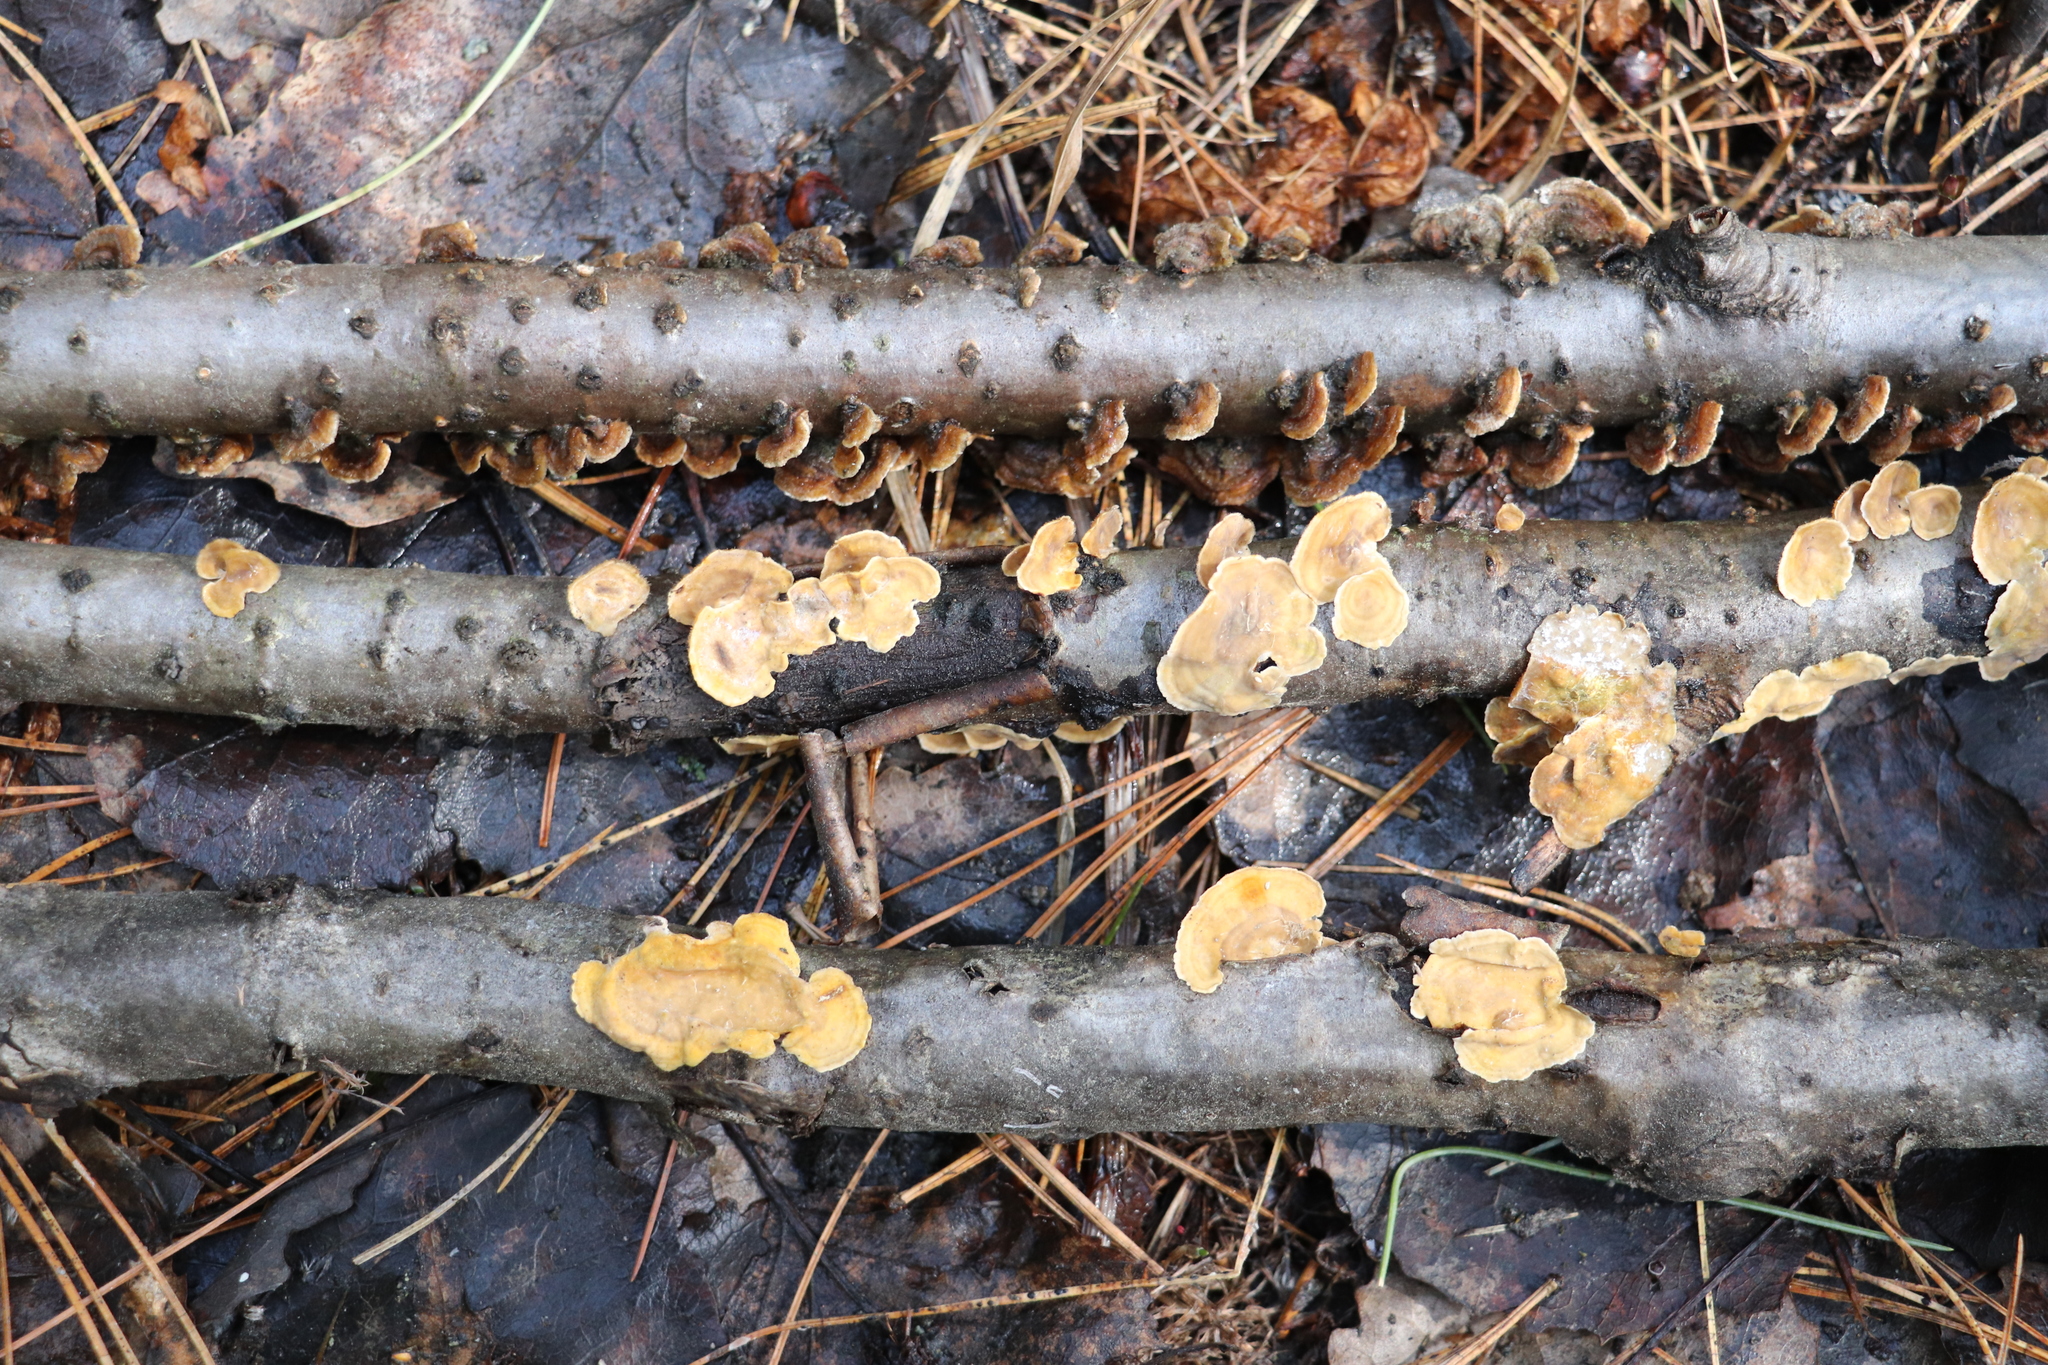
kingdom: Fungi
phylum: Basidiomycota
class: Agaricomycetes
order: Russulales
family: Stereaceae
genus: Stereum
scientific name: Stereum hirsutum
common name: Hairy curtain crust
